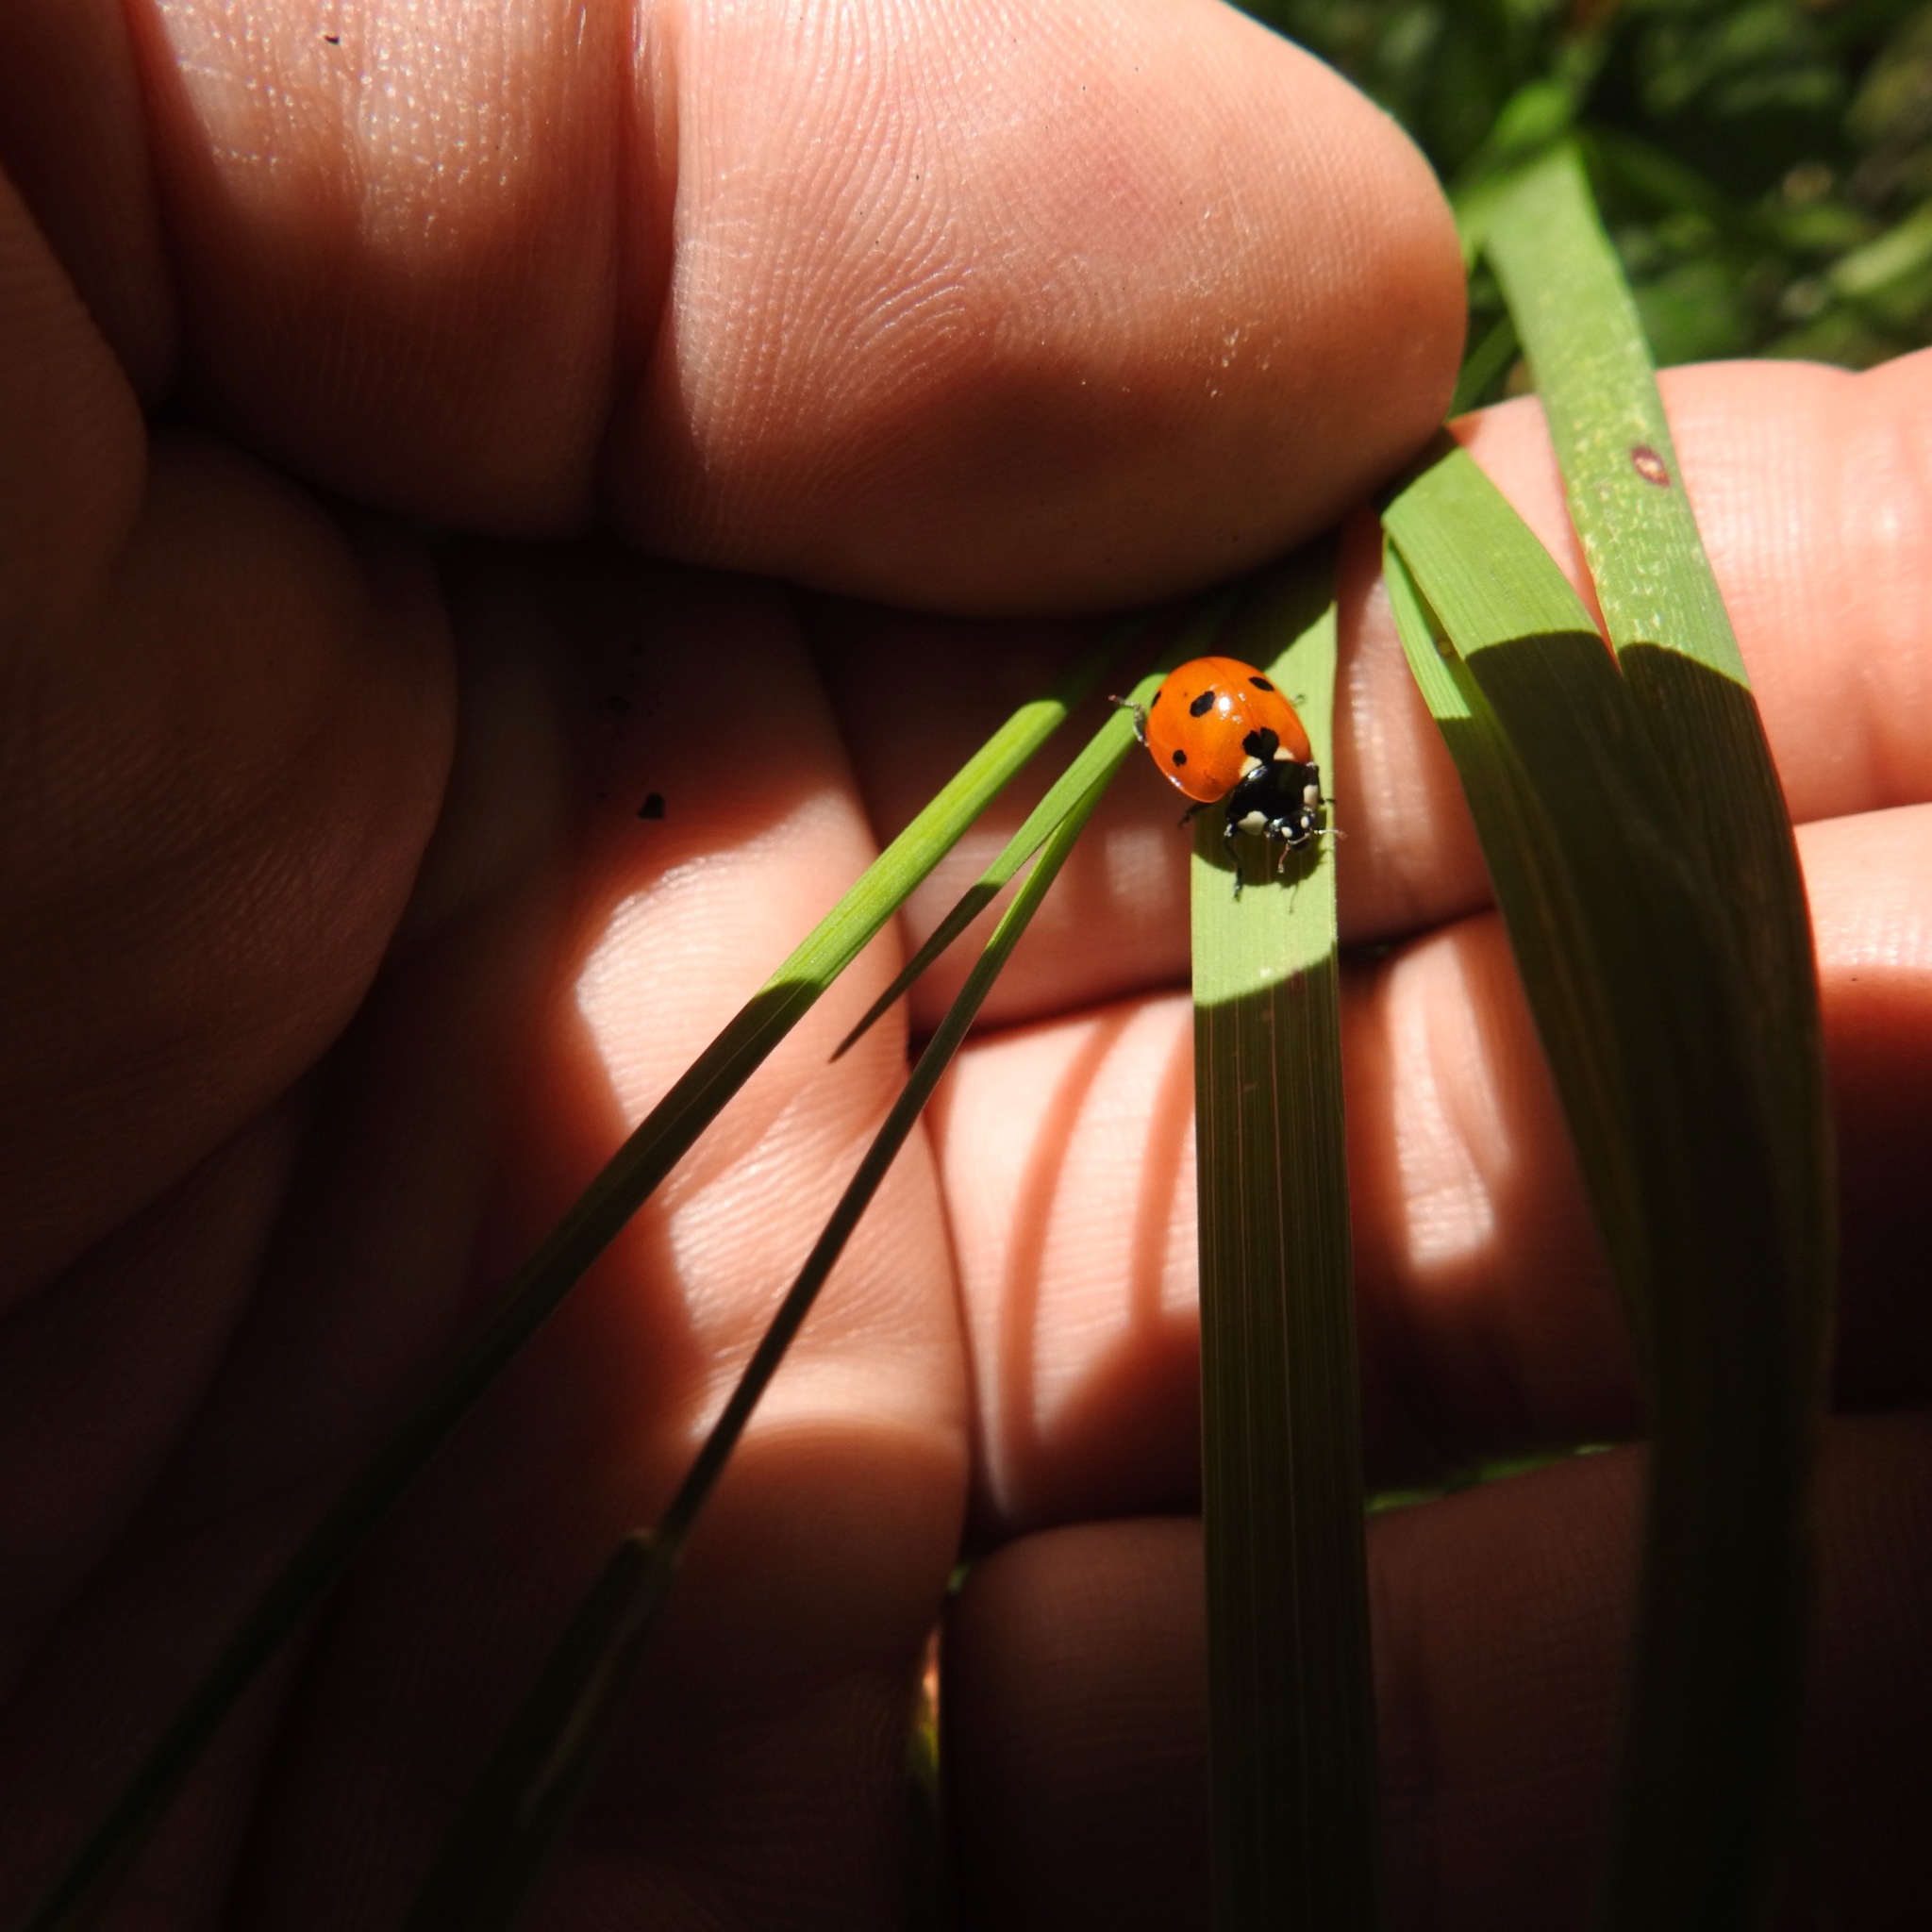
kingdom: Animalia
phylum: Arthropoda
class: Insecta
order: Coleoptera
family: Coccinellidae
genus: Coccinella
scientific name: Coccinella septempunctata
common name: Sevenspotted lady beetle
